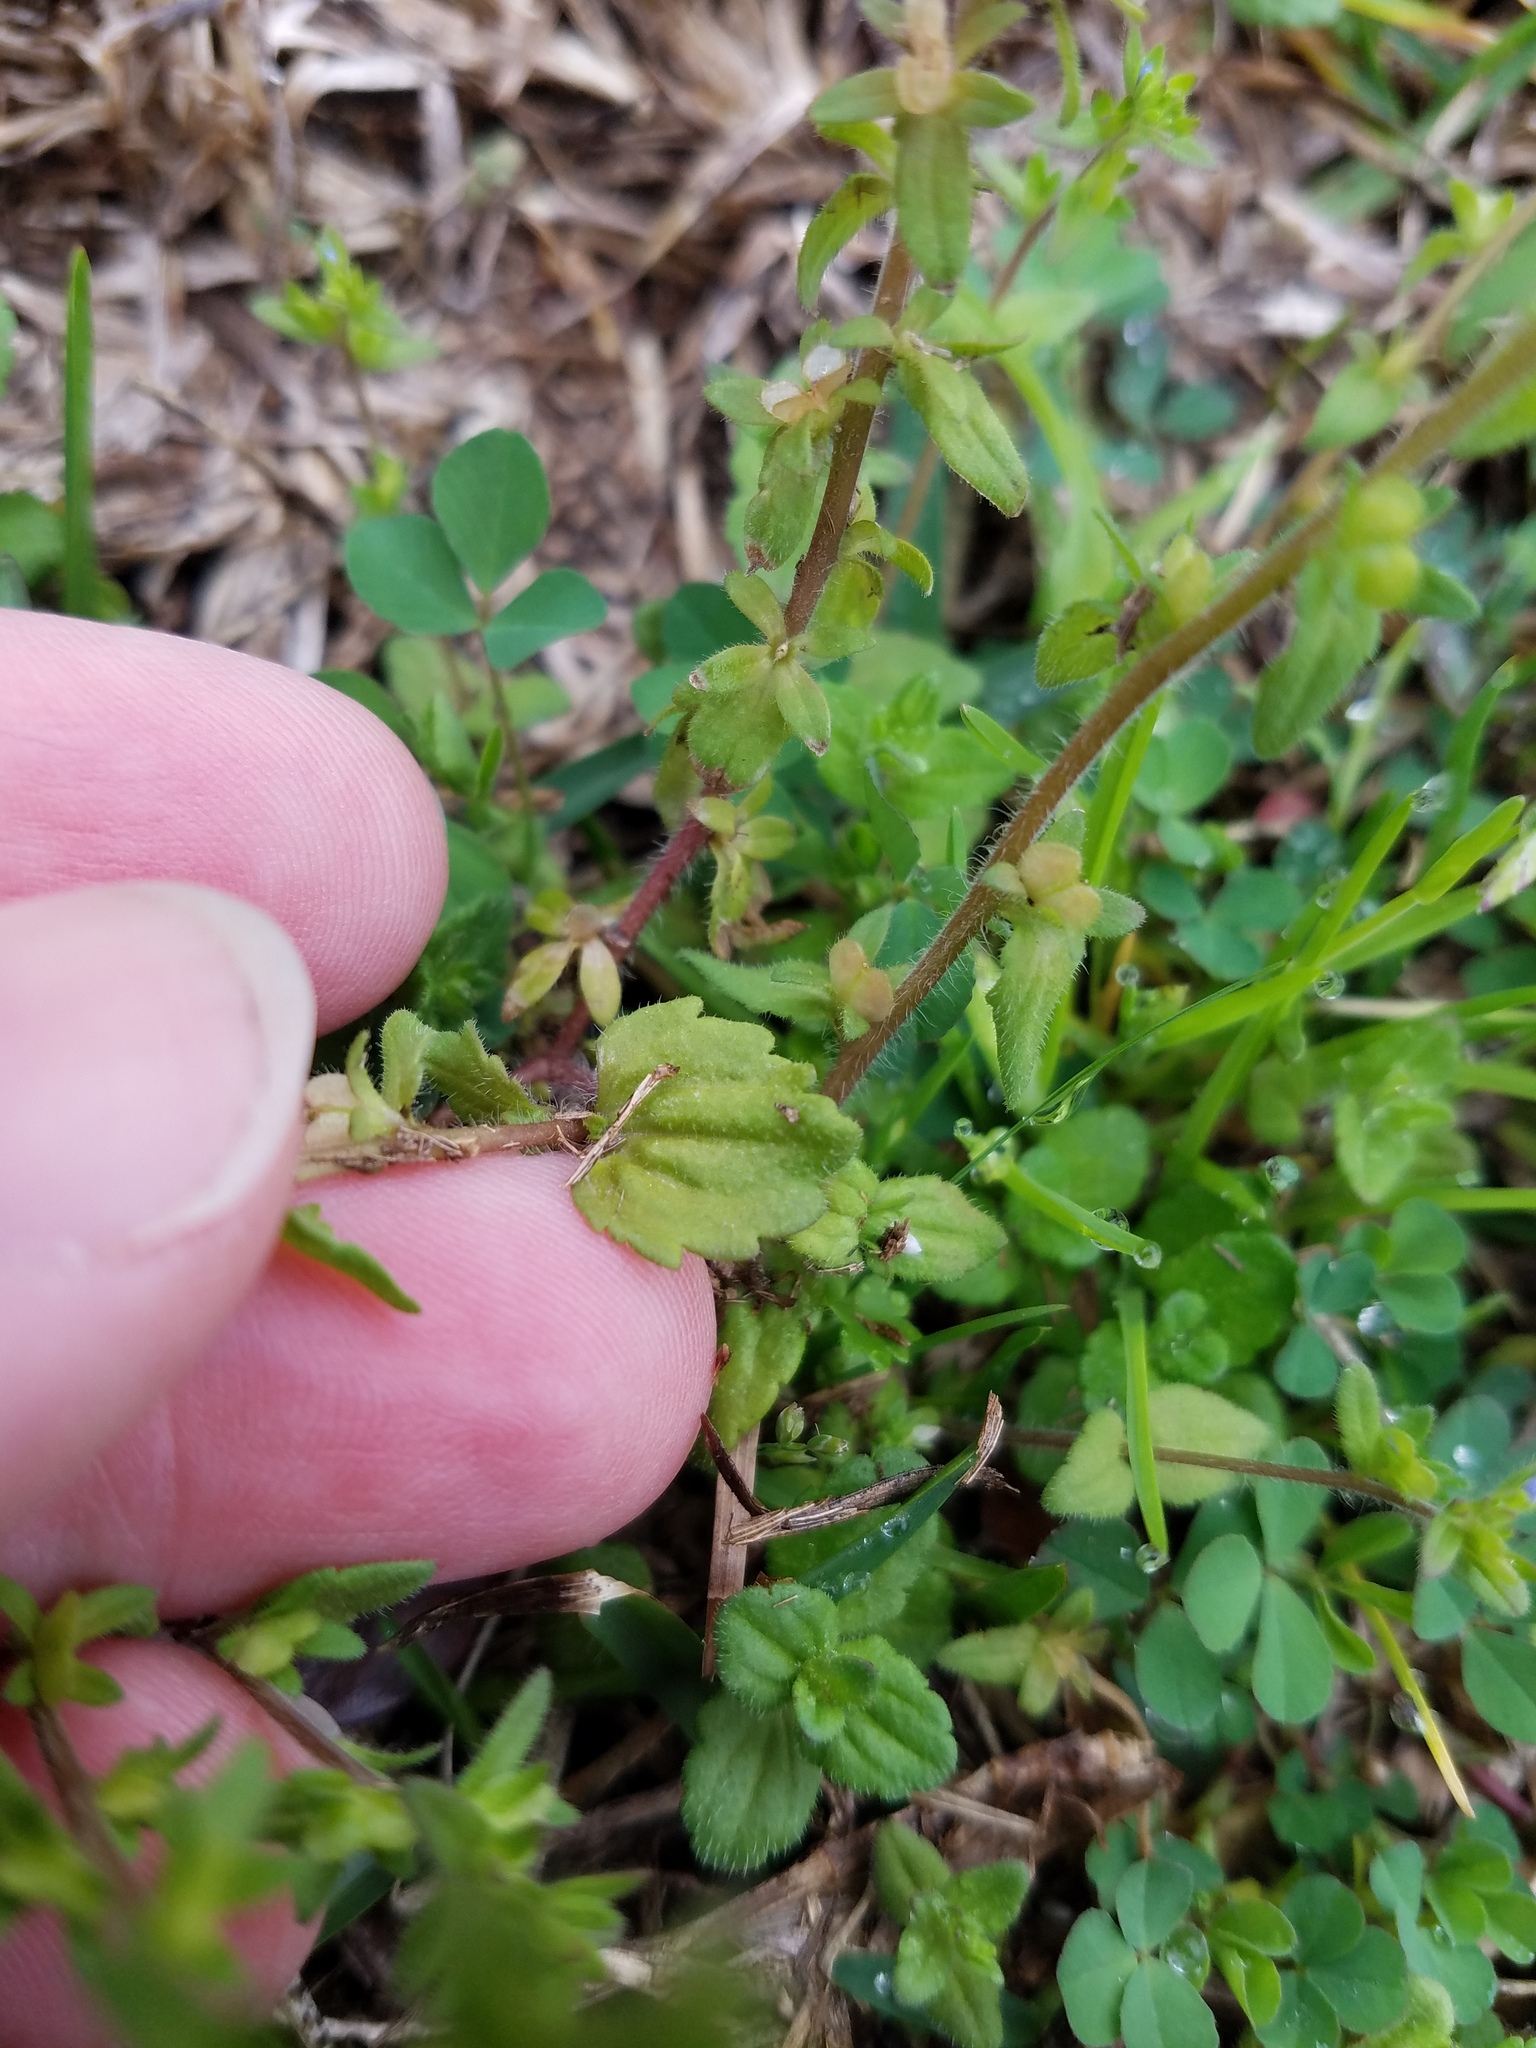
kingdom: Plantae
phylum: Tracheophyta
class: Magnoliopsida
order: Lamiales
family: Plantaginaceae
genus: Veronica
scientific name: Veronica arvensis
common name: Corn speedwell
